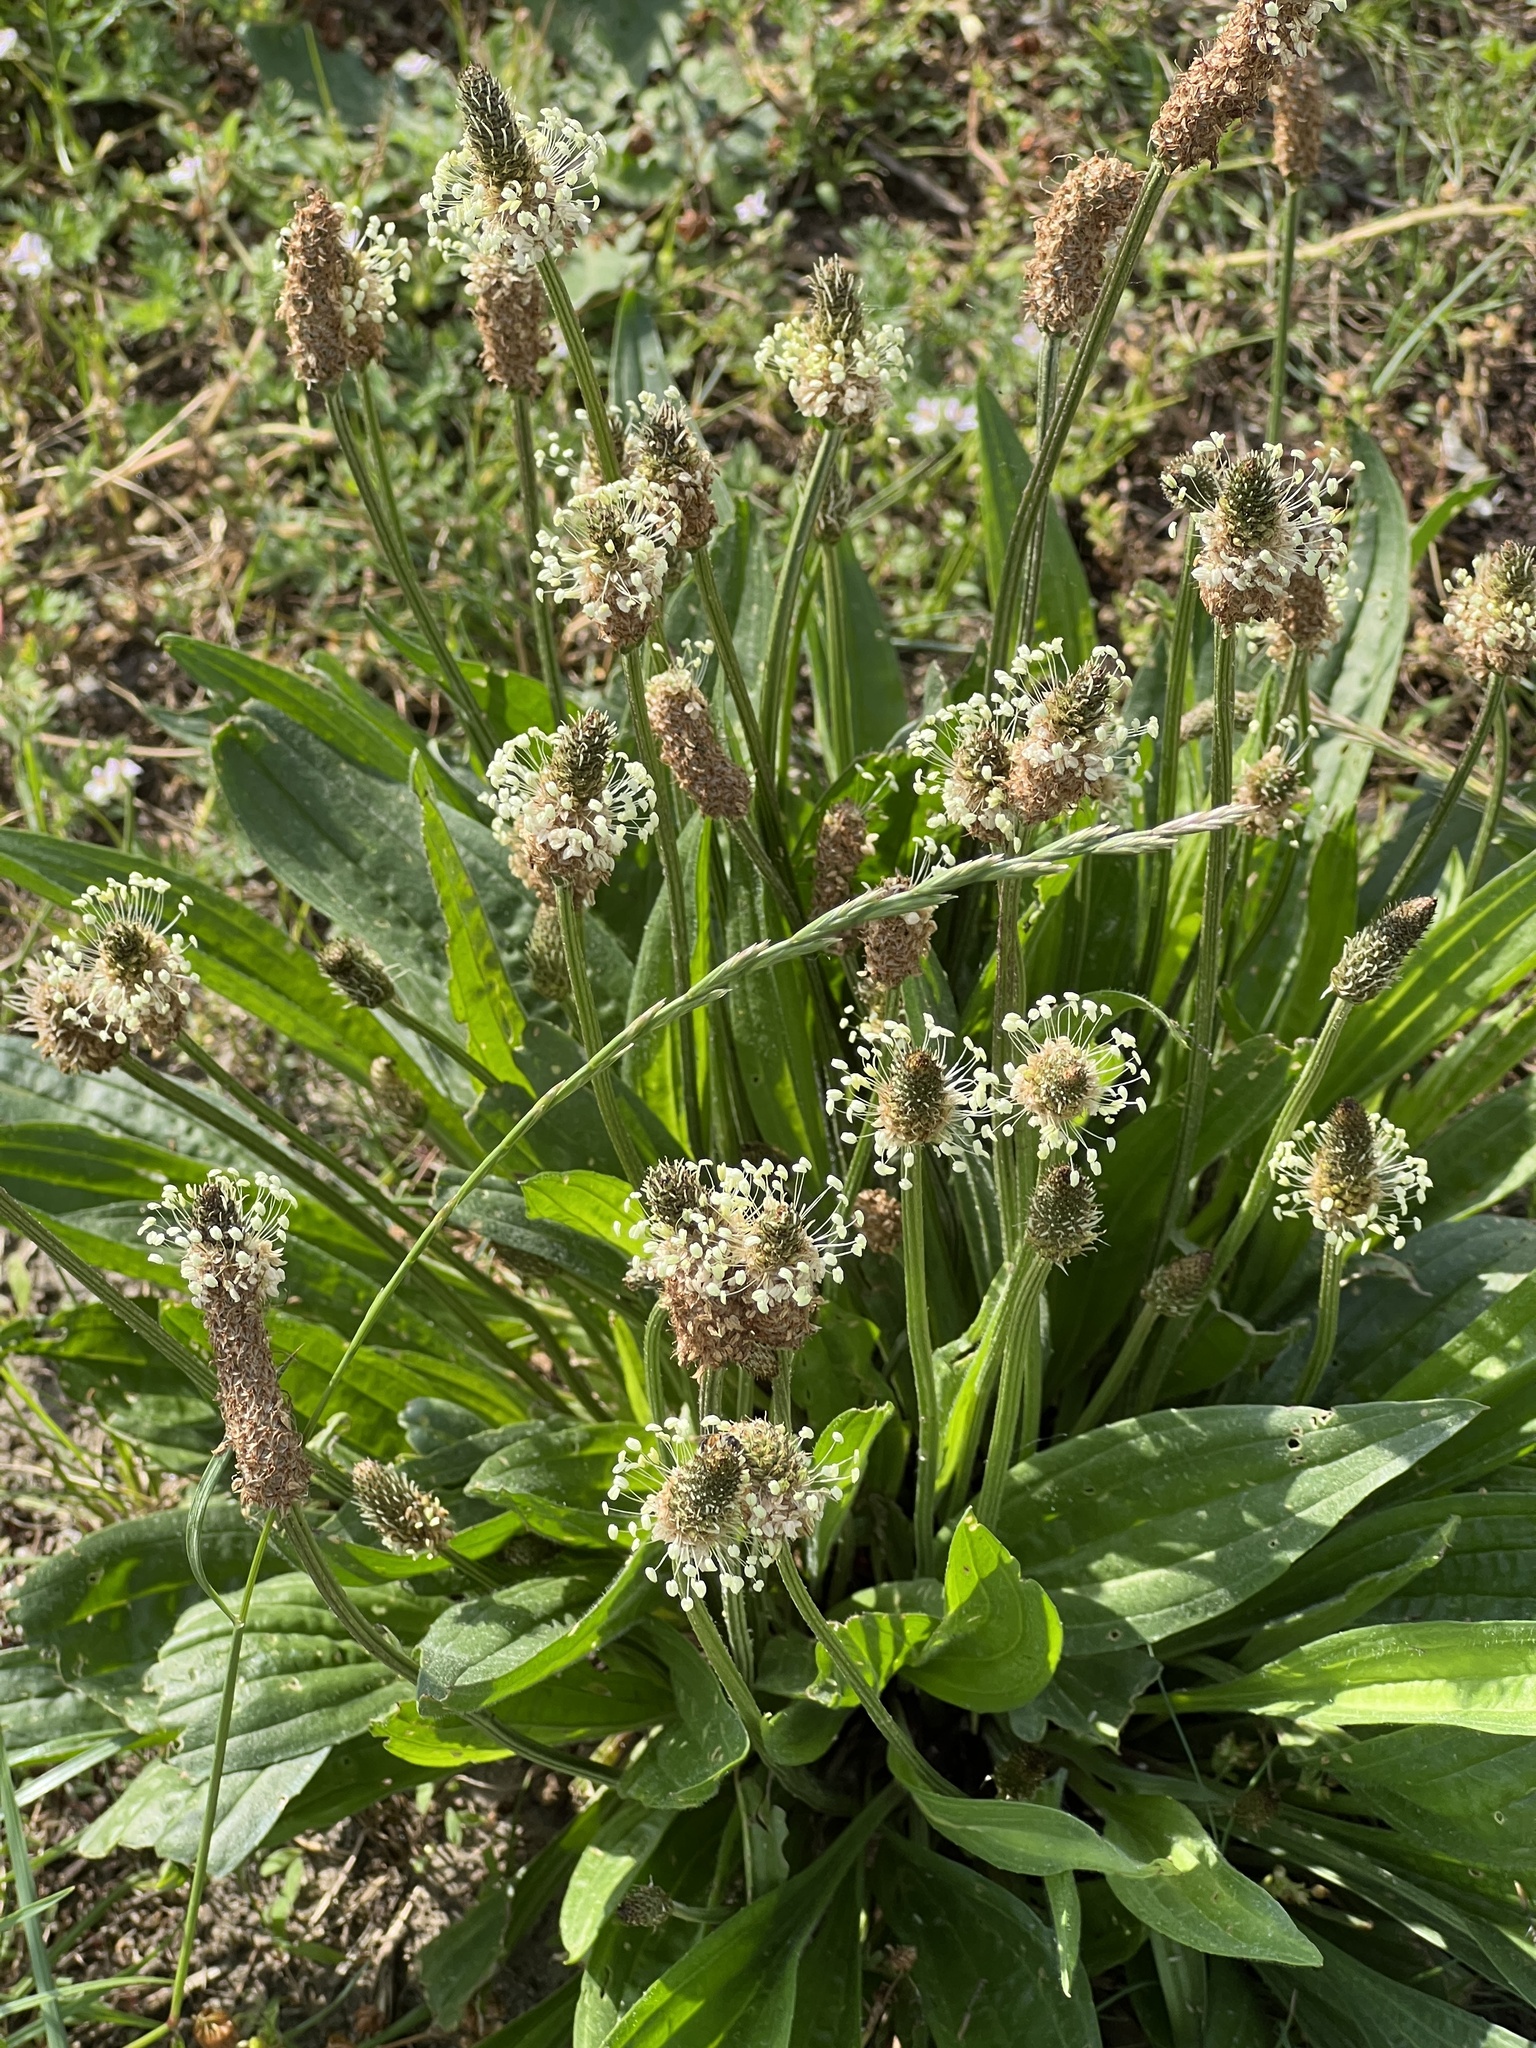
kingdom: Plantae
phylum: Tracheophyta
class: Magnoliopsida
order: Lamiales
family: Plantaginaceae
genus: Plantago
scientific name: Plantago lanceolata
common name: Ribwort plantain
